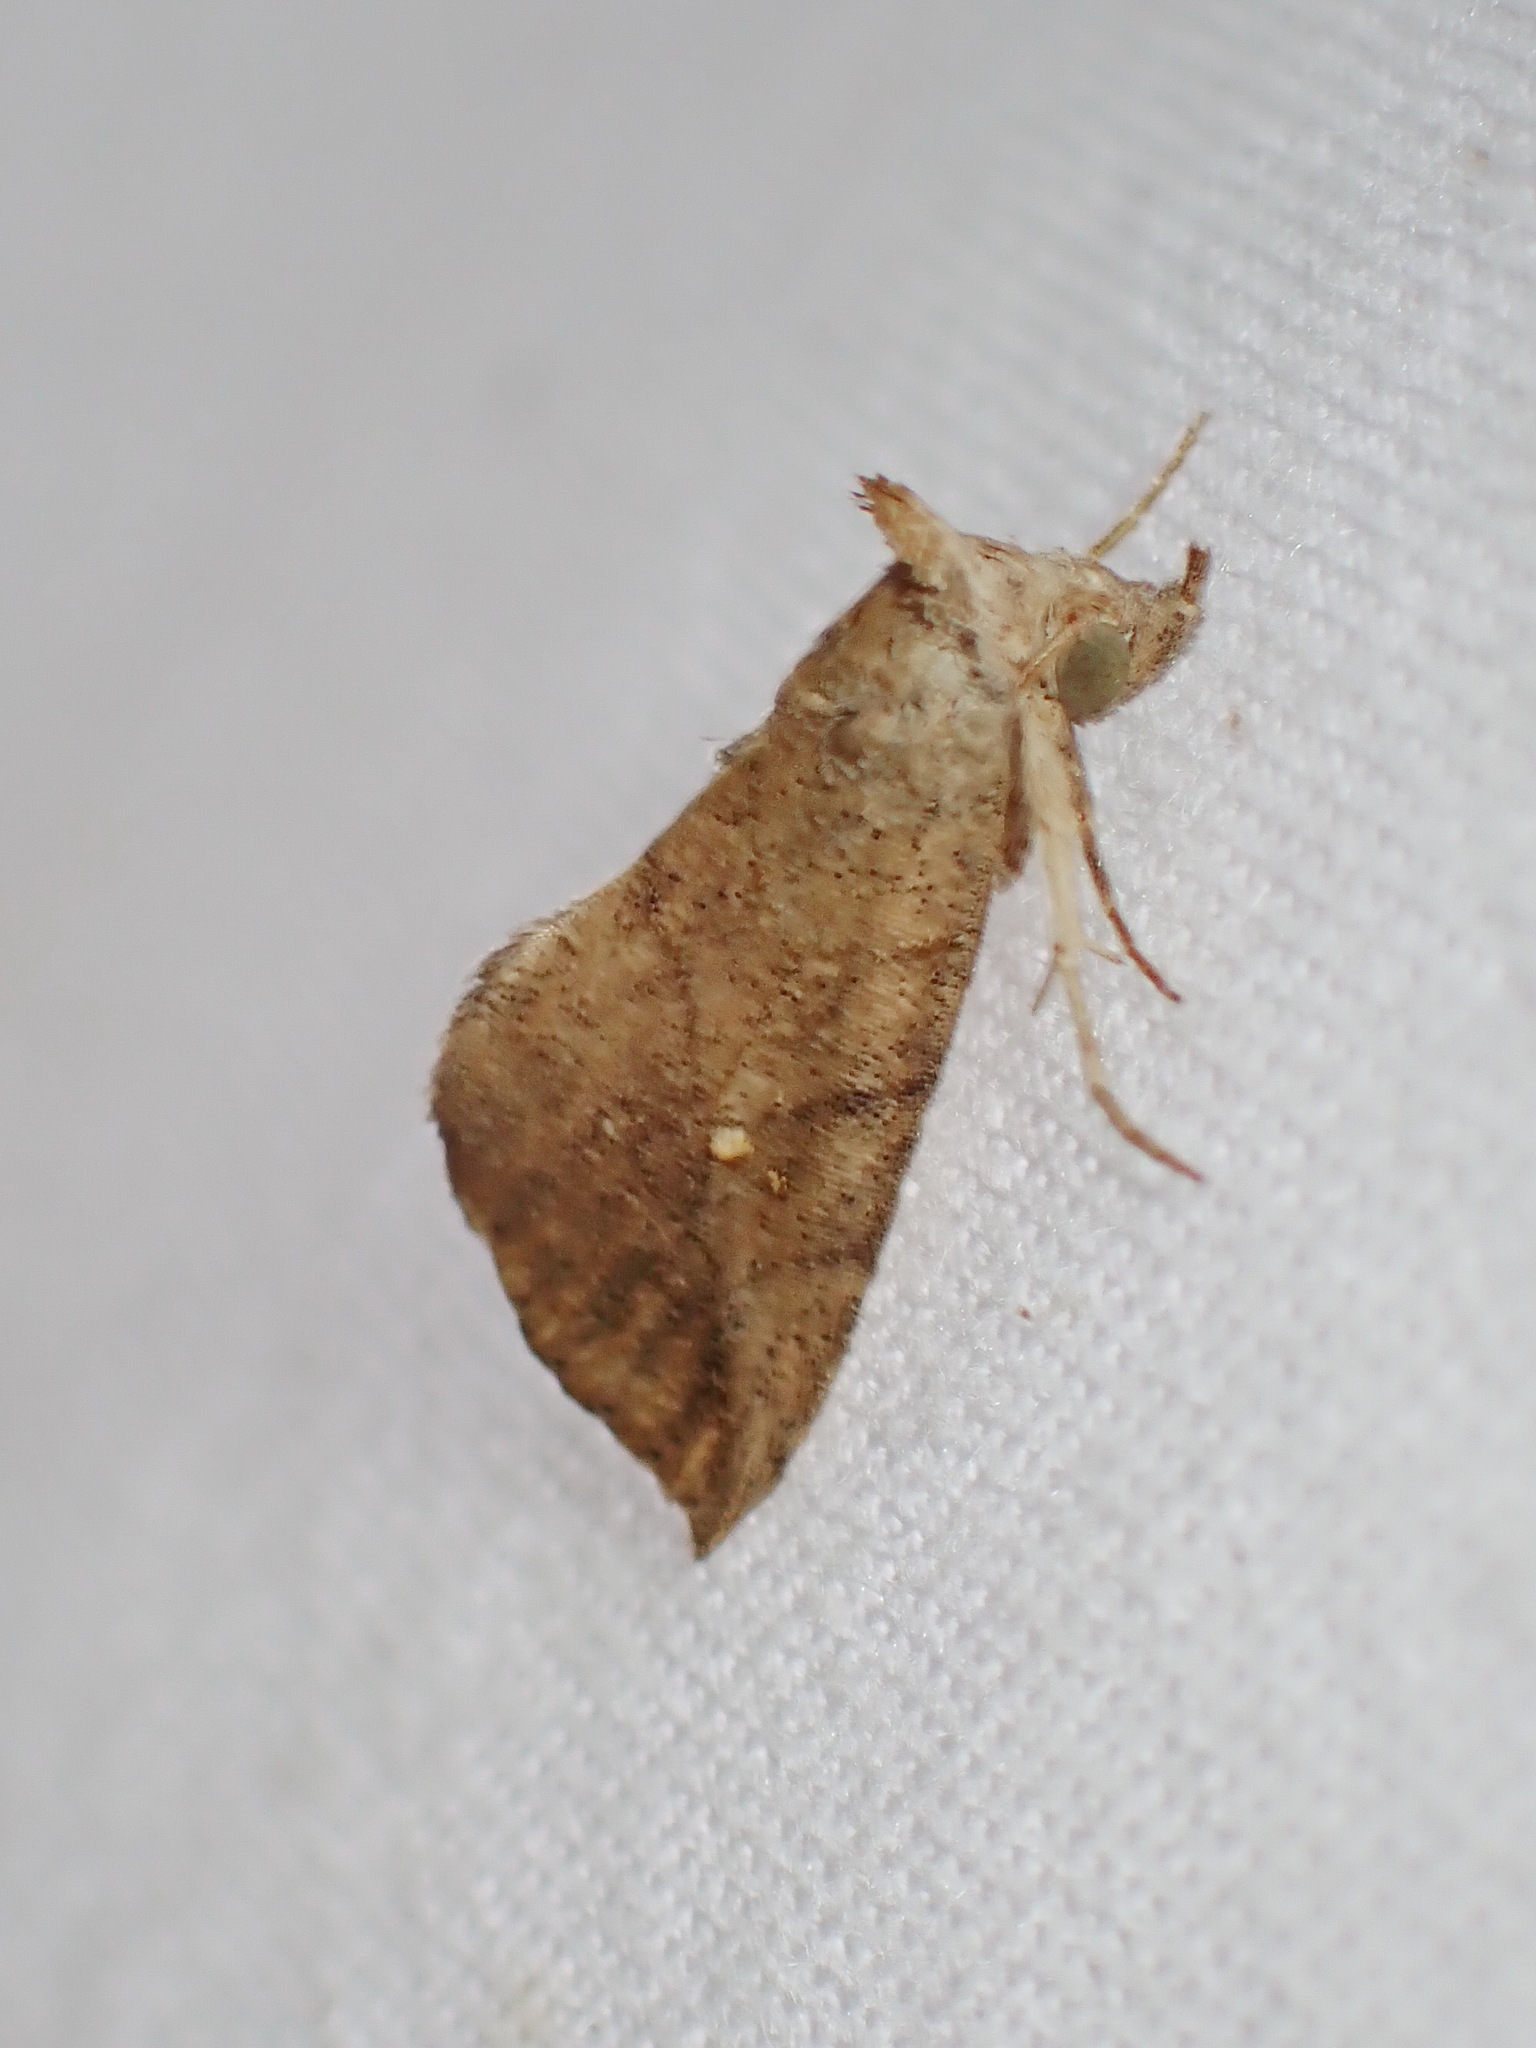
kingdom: Animalia
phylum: Arthropoda
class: Insecta
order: Lepidoptera
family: Erebidae
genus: Isogona
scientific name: Isogona snowi
